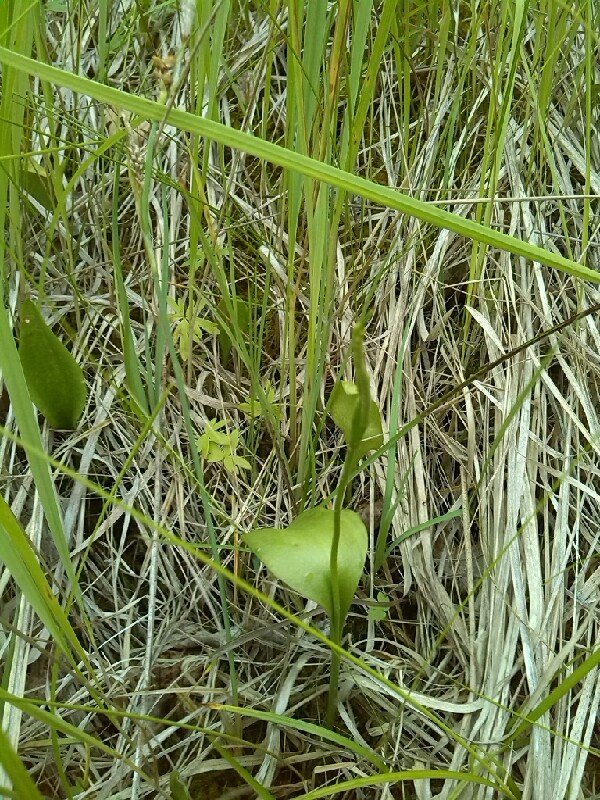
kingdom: Plantae
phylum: Tracheophyta
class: Polypodiopsida
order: Ophioglossales
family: Ophioglossaceae
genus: Ophioglossum
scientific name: Ophioglossum vulgatum
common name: Adder's-tongue
